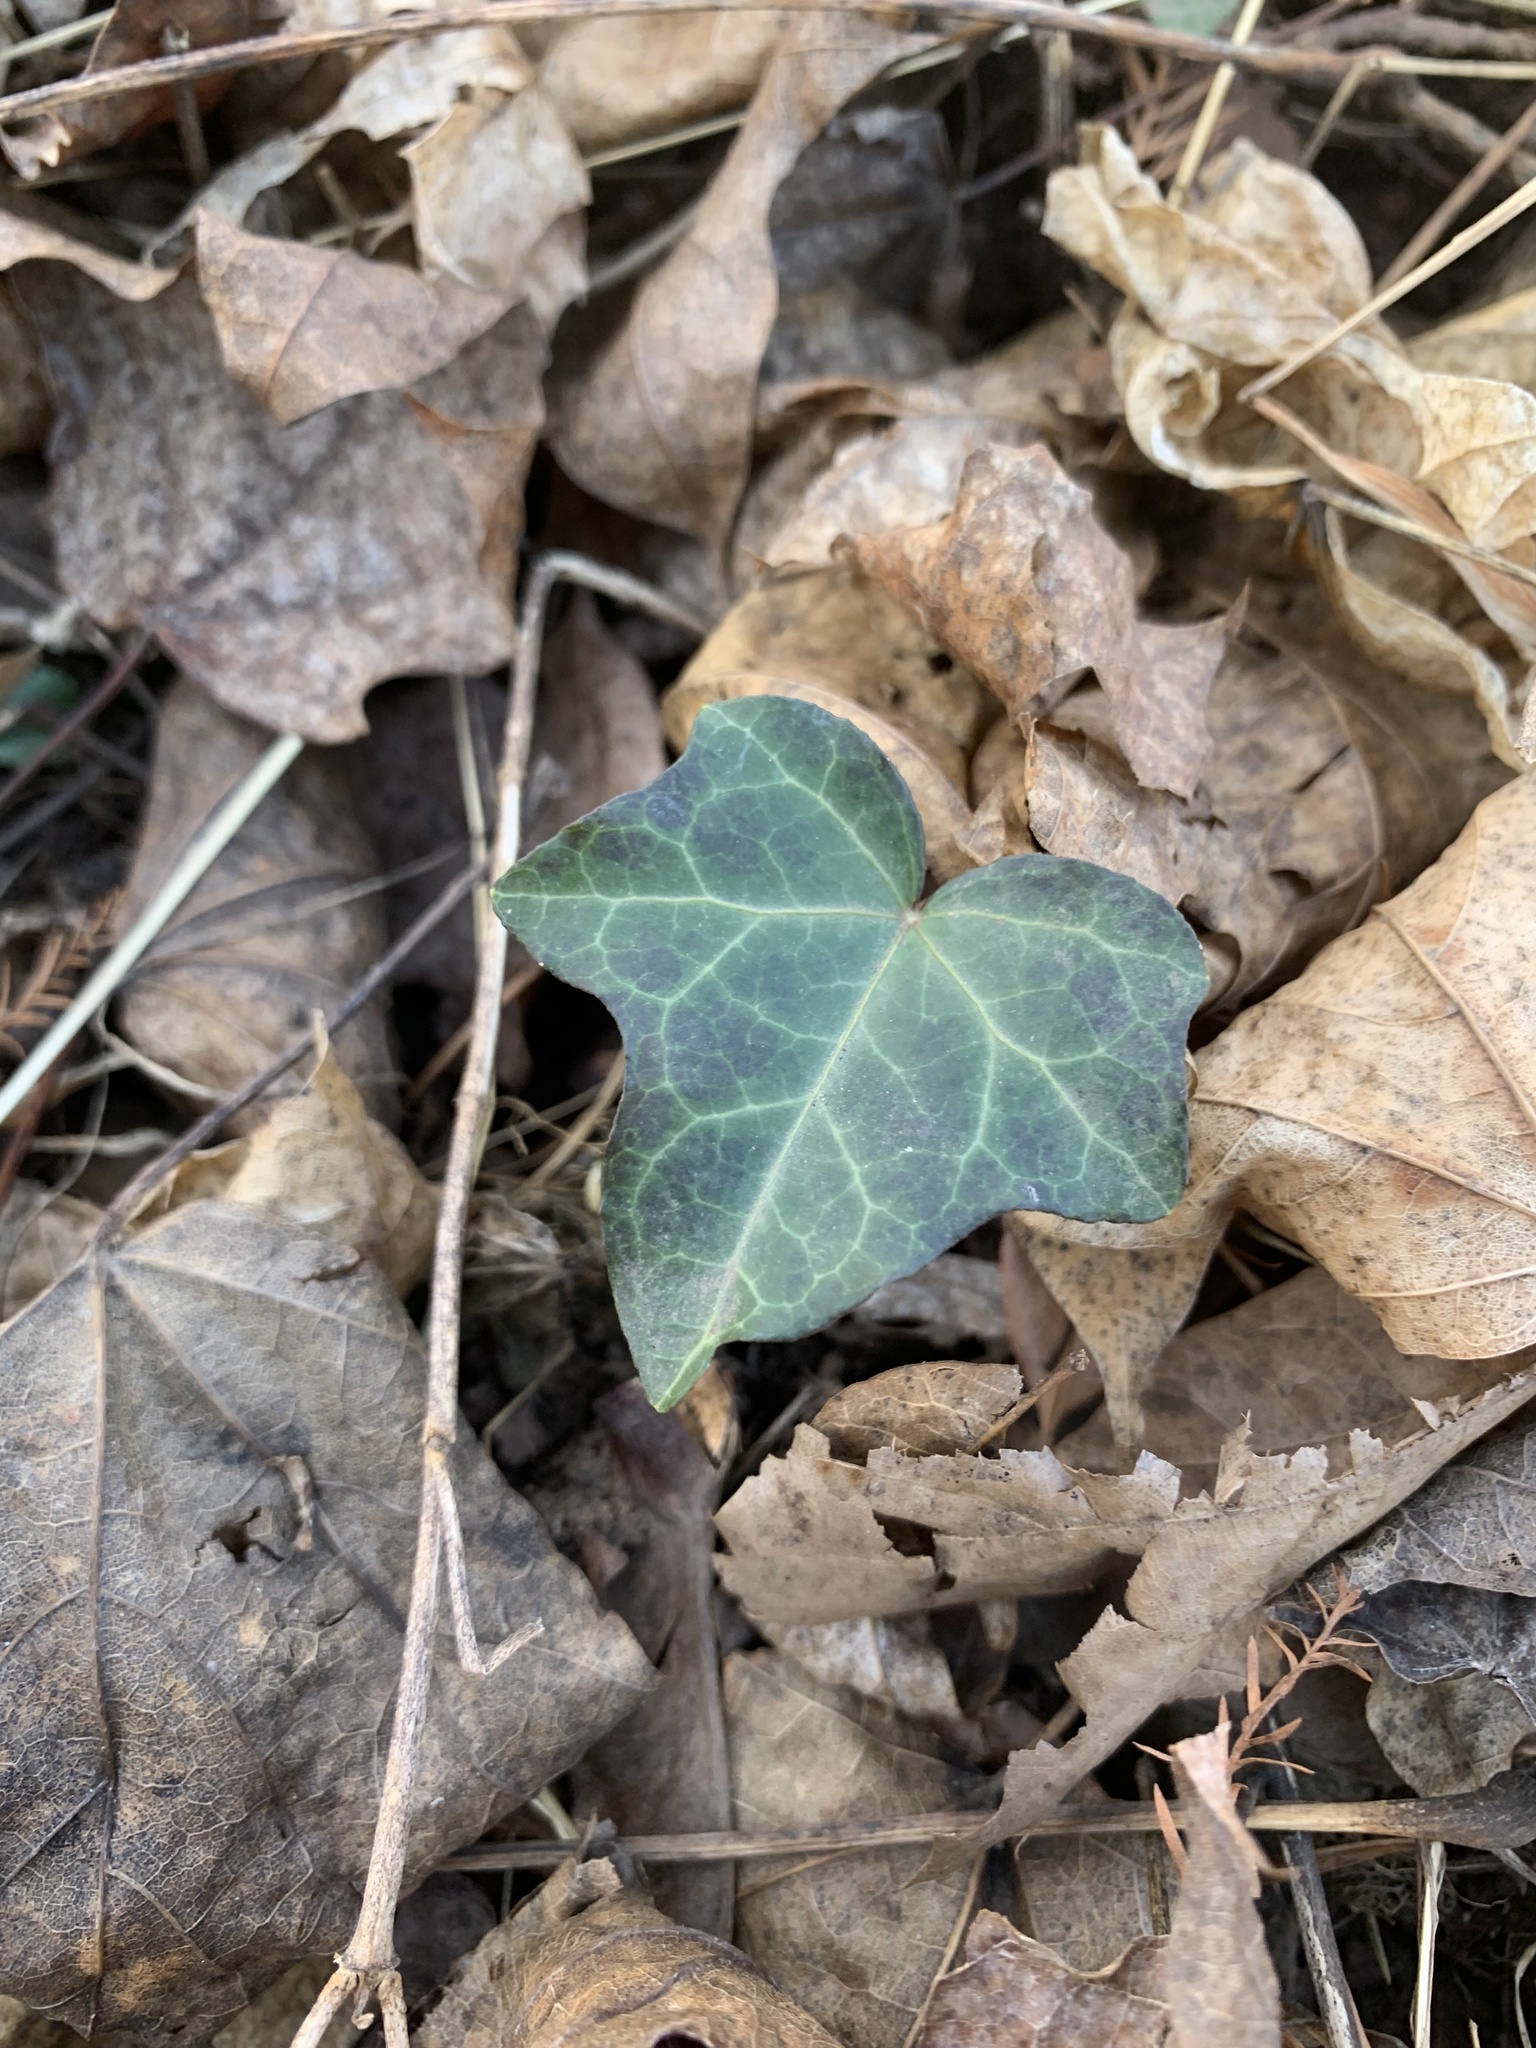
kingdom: Plantae
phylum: Tracheophyta
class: Magnoliopsida
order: Apiales
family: Araliaceae
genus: Hedera
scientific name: Hedera helix
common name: Ivy
